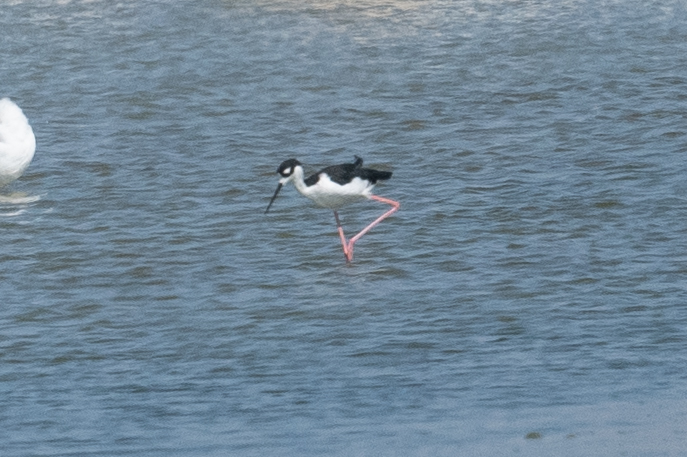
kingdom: Animalia
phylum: Chordata
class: Aves
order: Charadriiformes
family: Recurvirostridae
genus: Himantopus
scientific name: Himantopus mexicanus
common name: Black-necked stilt
